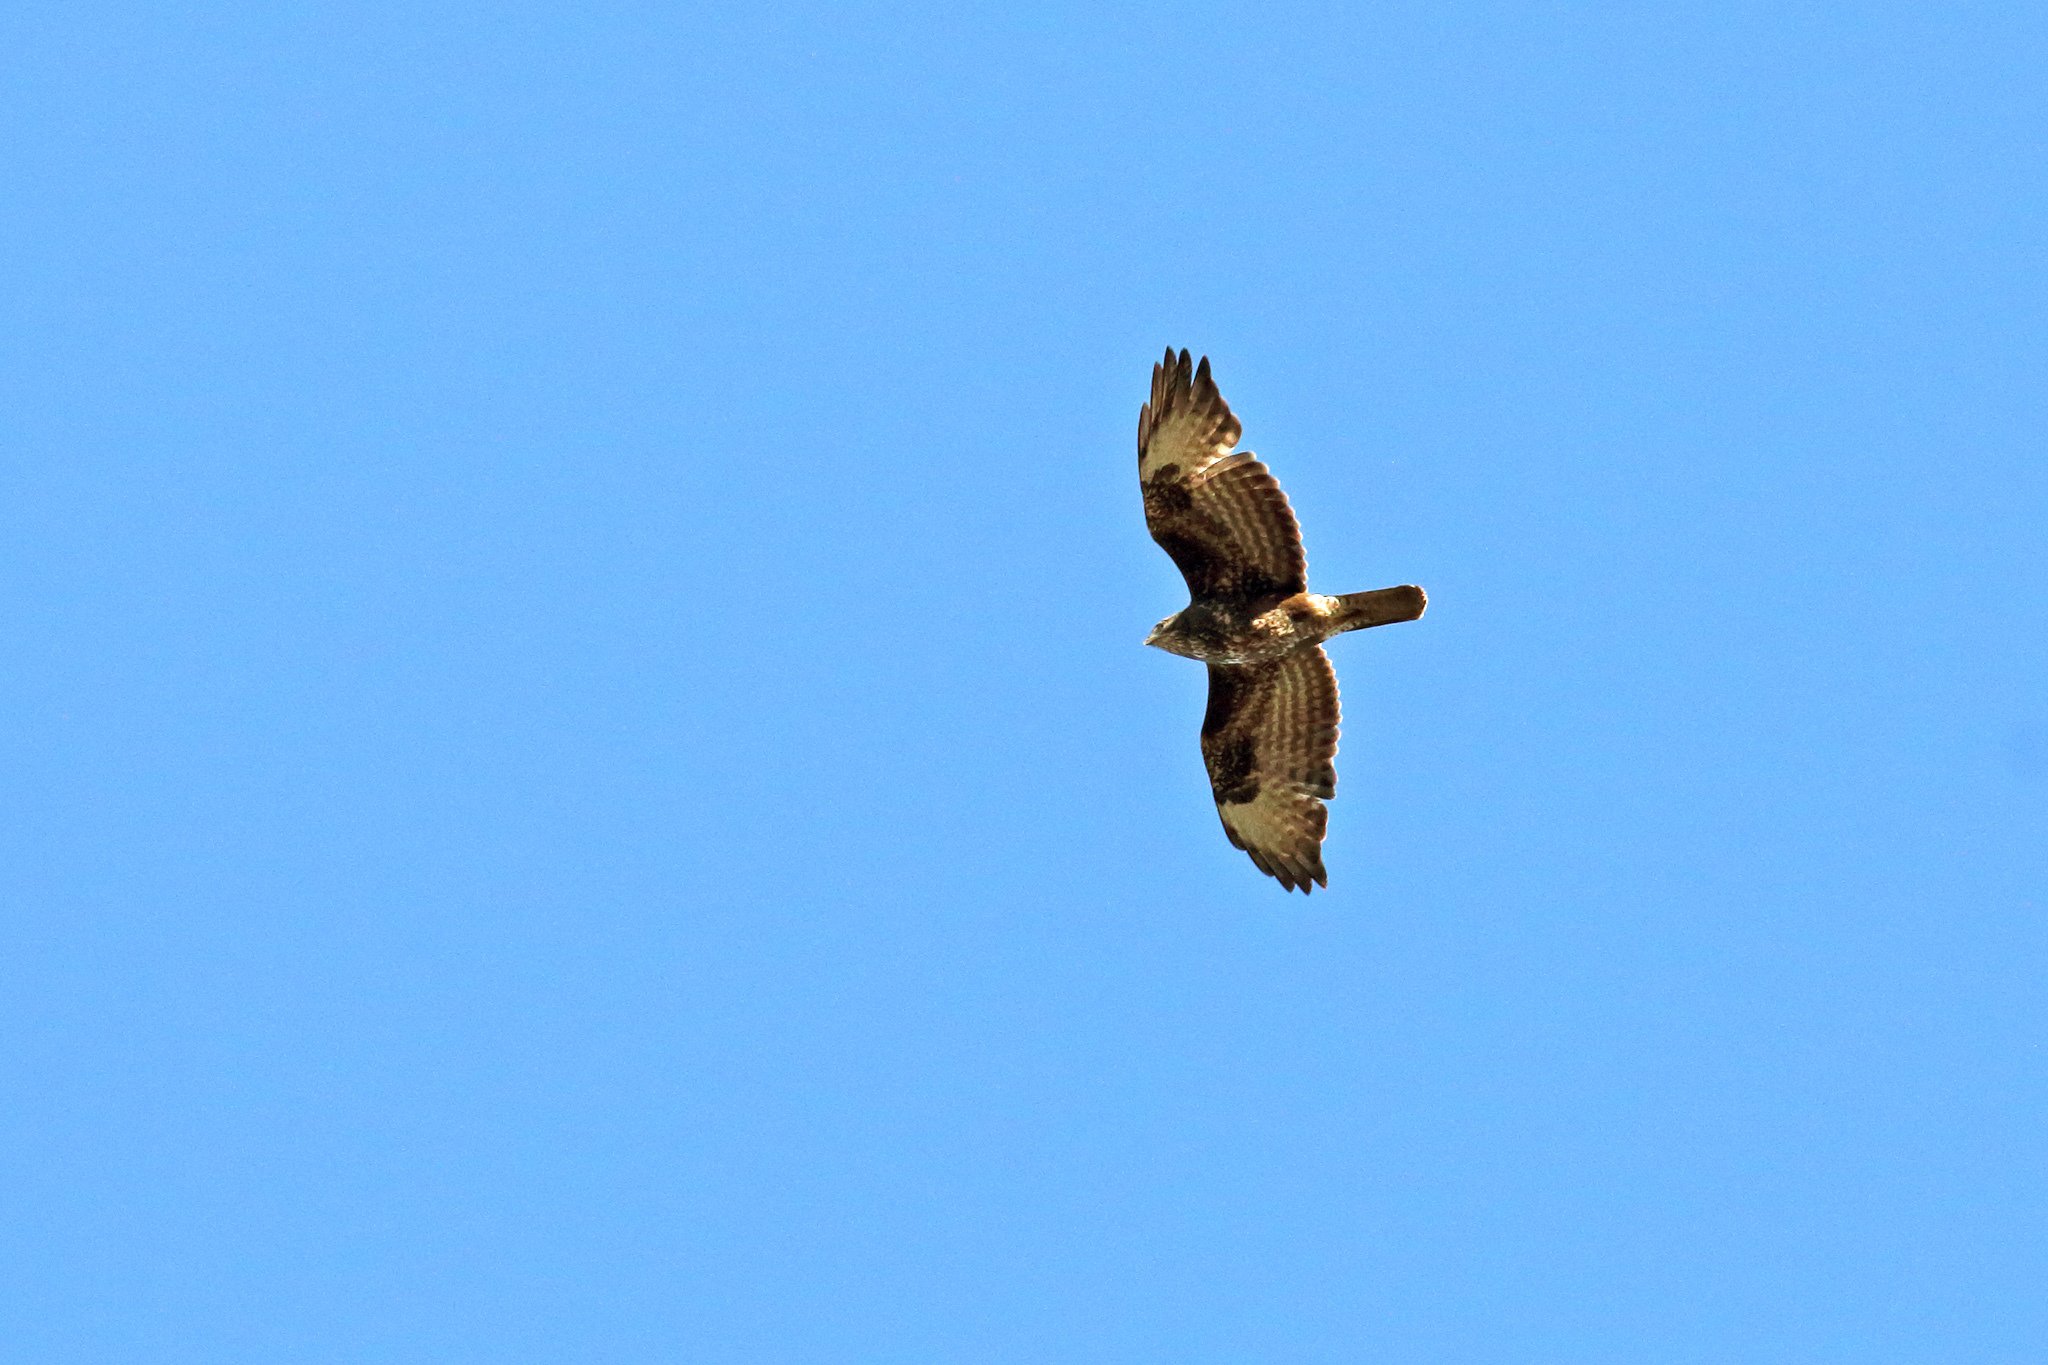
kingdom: Animalia
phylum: Chordata
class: Aves
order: Accipitriformes
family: Accipitridae
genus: Buteo
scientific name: Buteo buteo
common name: Common buzzard
